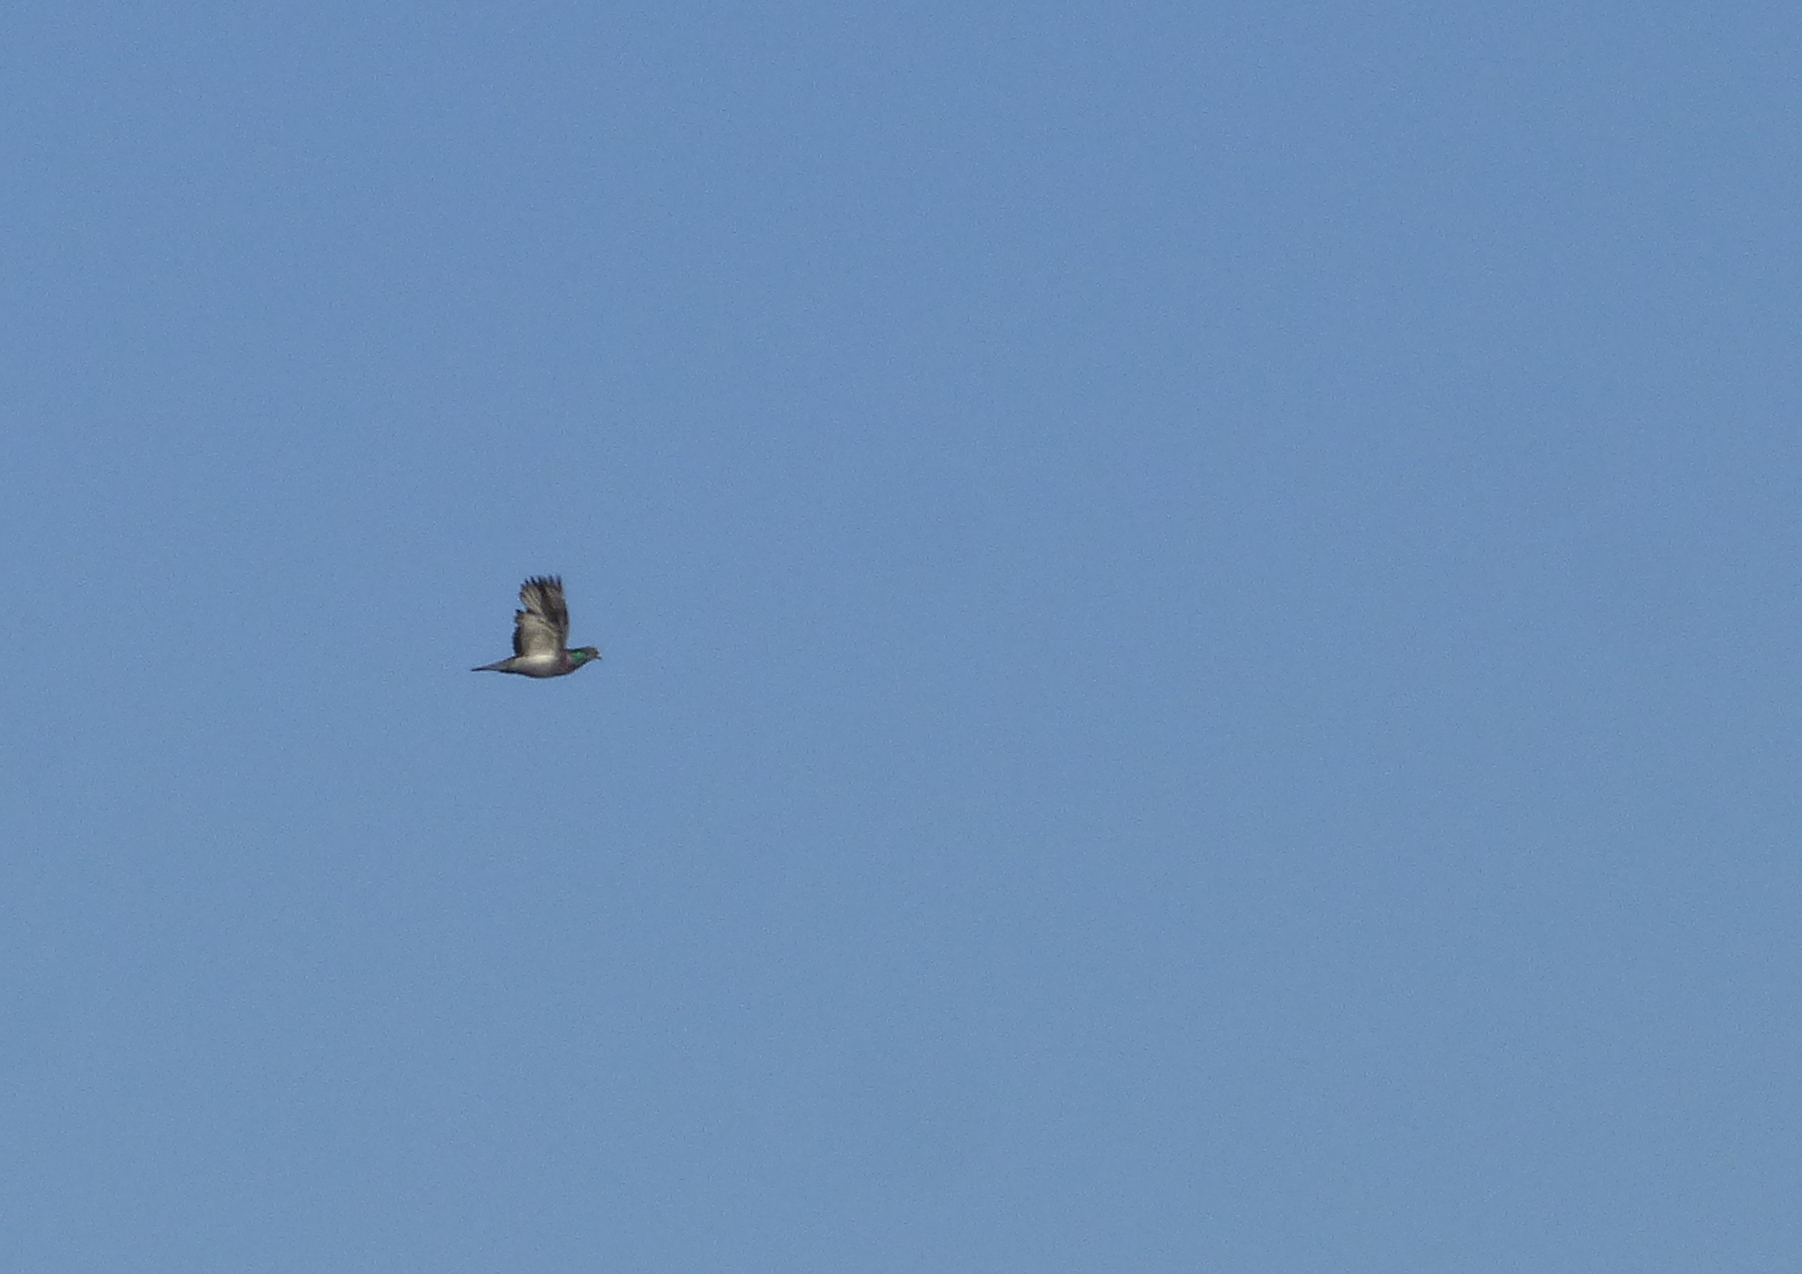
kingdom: Animalia
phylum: Chordata
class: Aves
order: Columbiformes
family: Columbidae
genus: Columba
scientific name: Columba livia
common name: Rock pigeon
